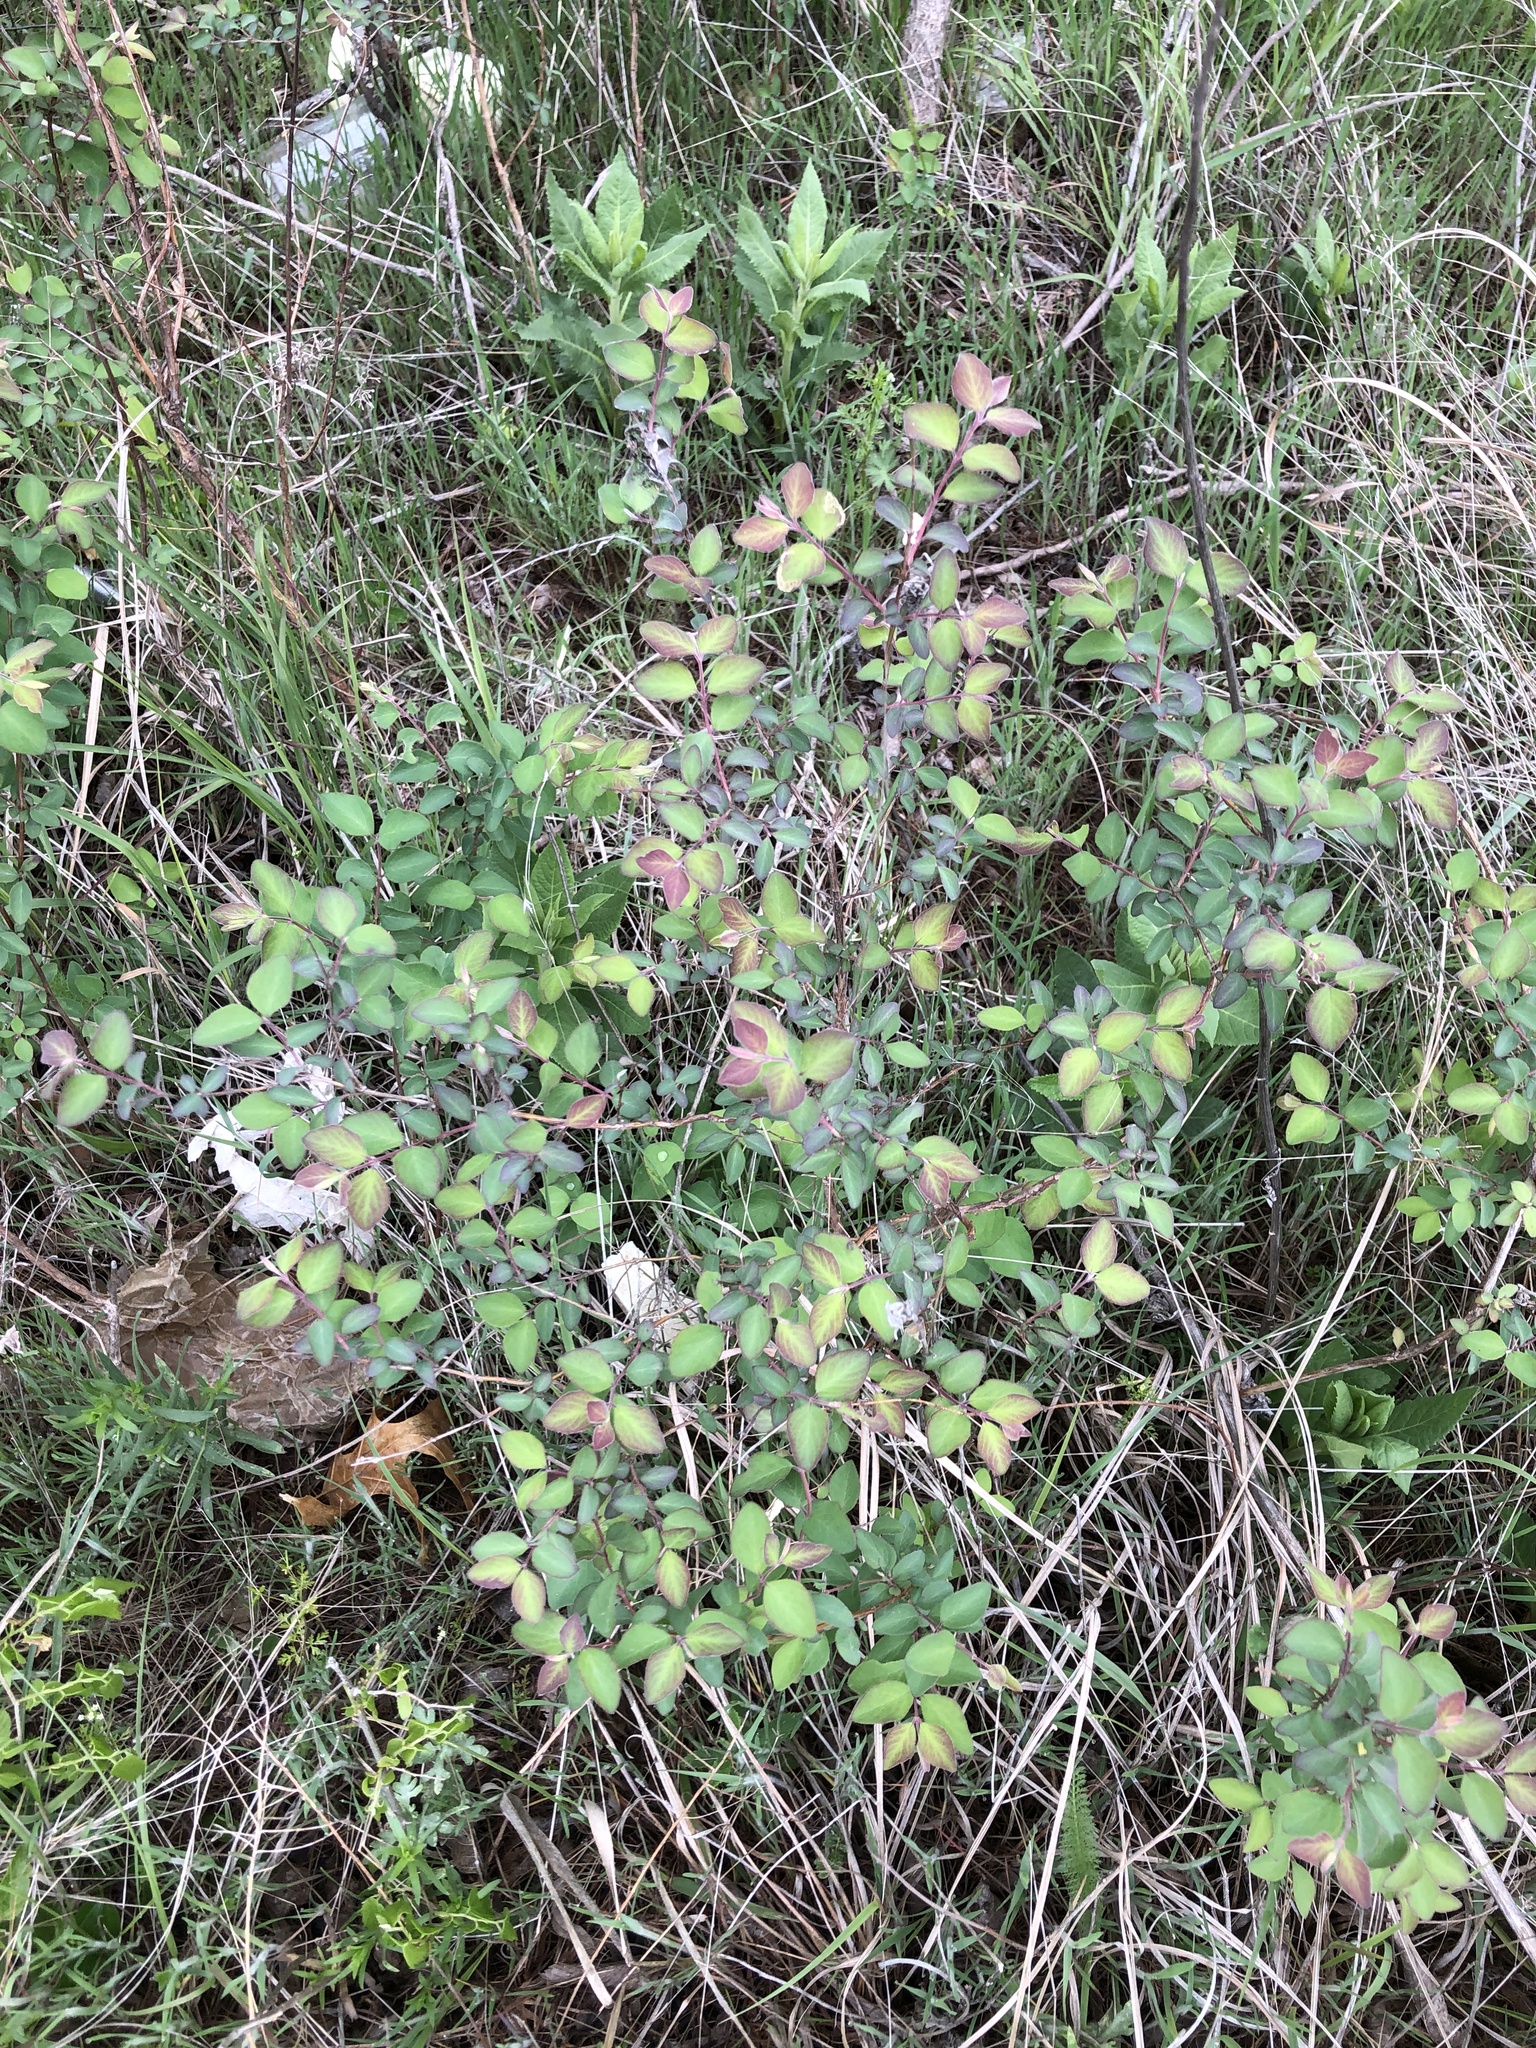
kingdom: Plantae
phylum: Tracheophyta
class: Magnoliopsida
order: Dipsacales
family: Caprifoliaceae
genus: Symphoricarpos
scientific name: Symphoricarpos orbiculatus
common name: Coralberry
